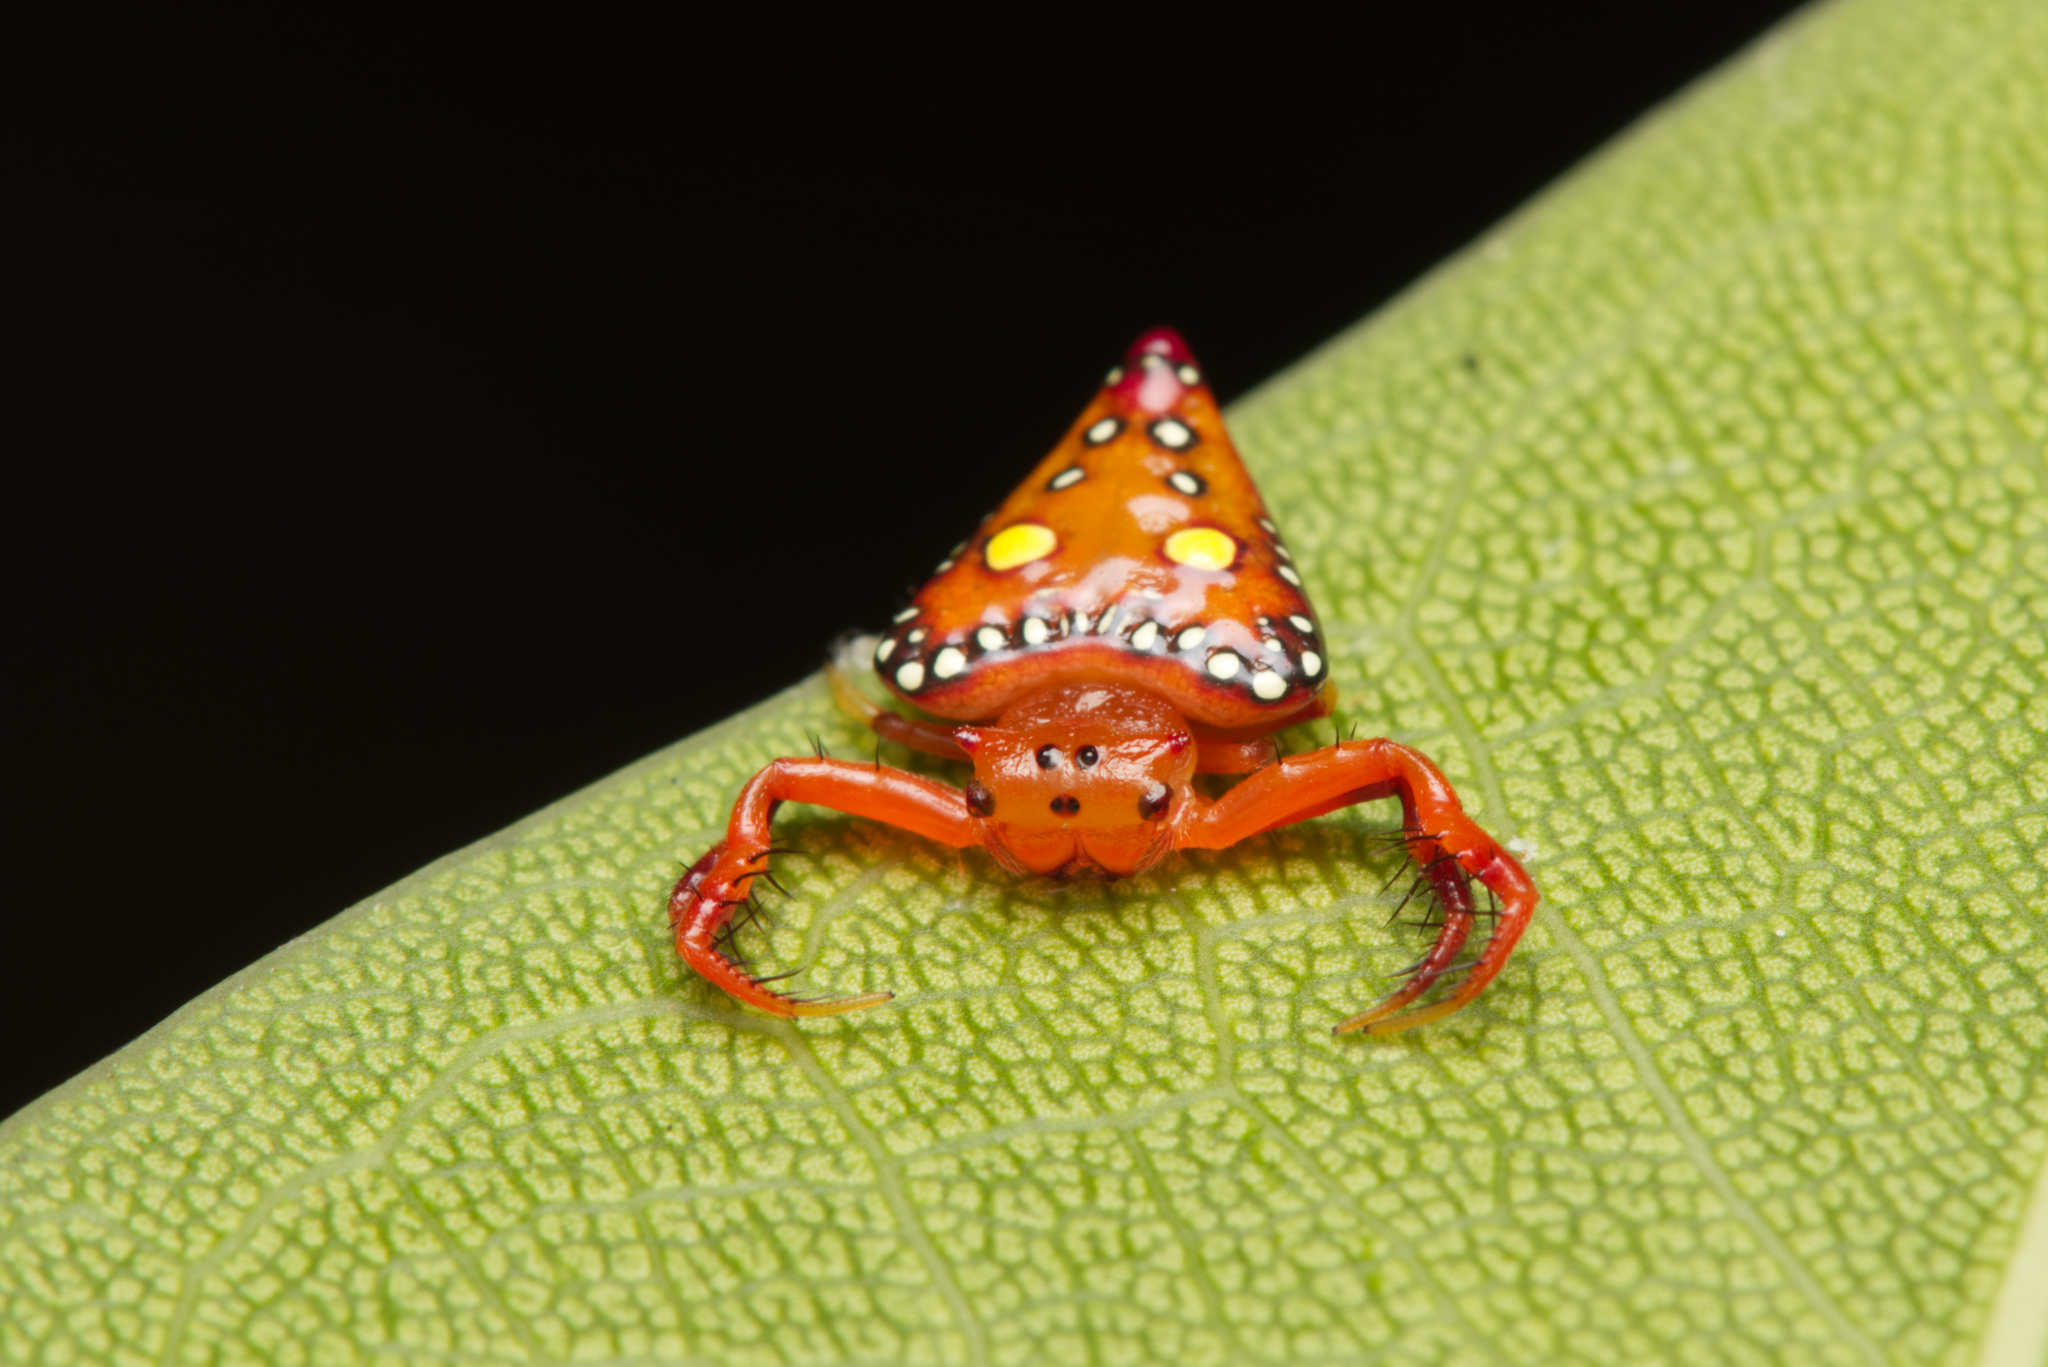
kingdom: Animalia
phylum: Arthropoda
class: Arachnida
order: Araneae
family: Arkyidae
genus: Arkys
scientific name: Arkys lancearius
